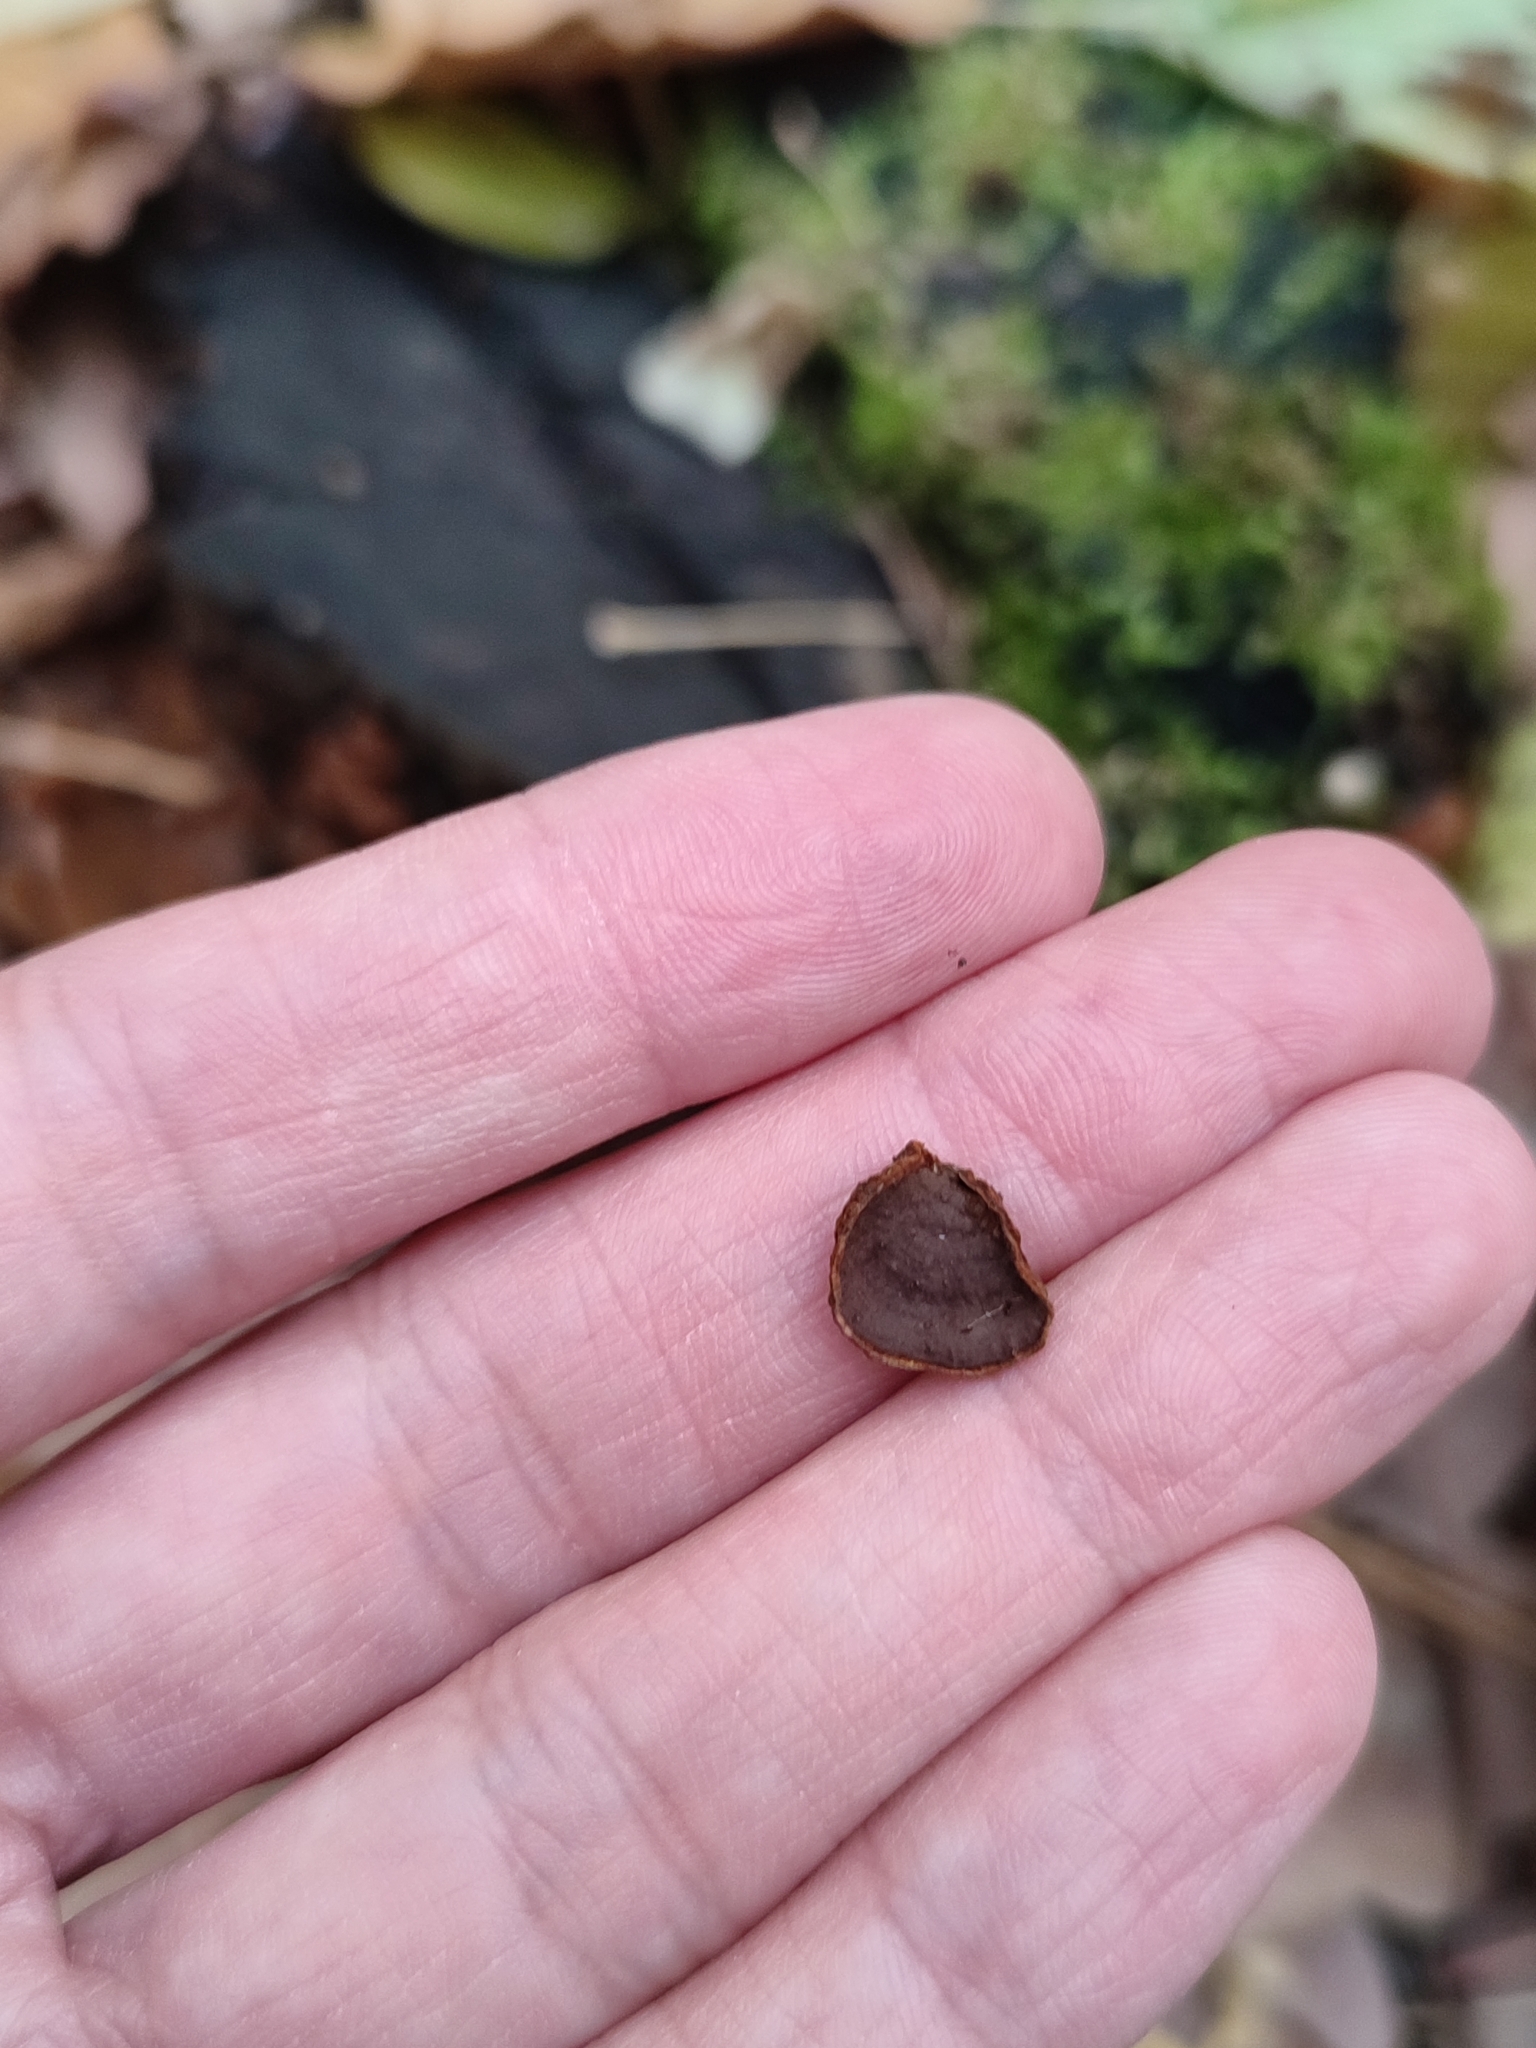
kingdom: Fungi
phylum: Basidiomycota
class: Agaricomycetes
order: Hymenochaetales
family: Hymenochaetaceae
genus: Hymenochaete
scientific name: Hymenochaete rubiginosa
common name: Oak curtain crust
